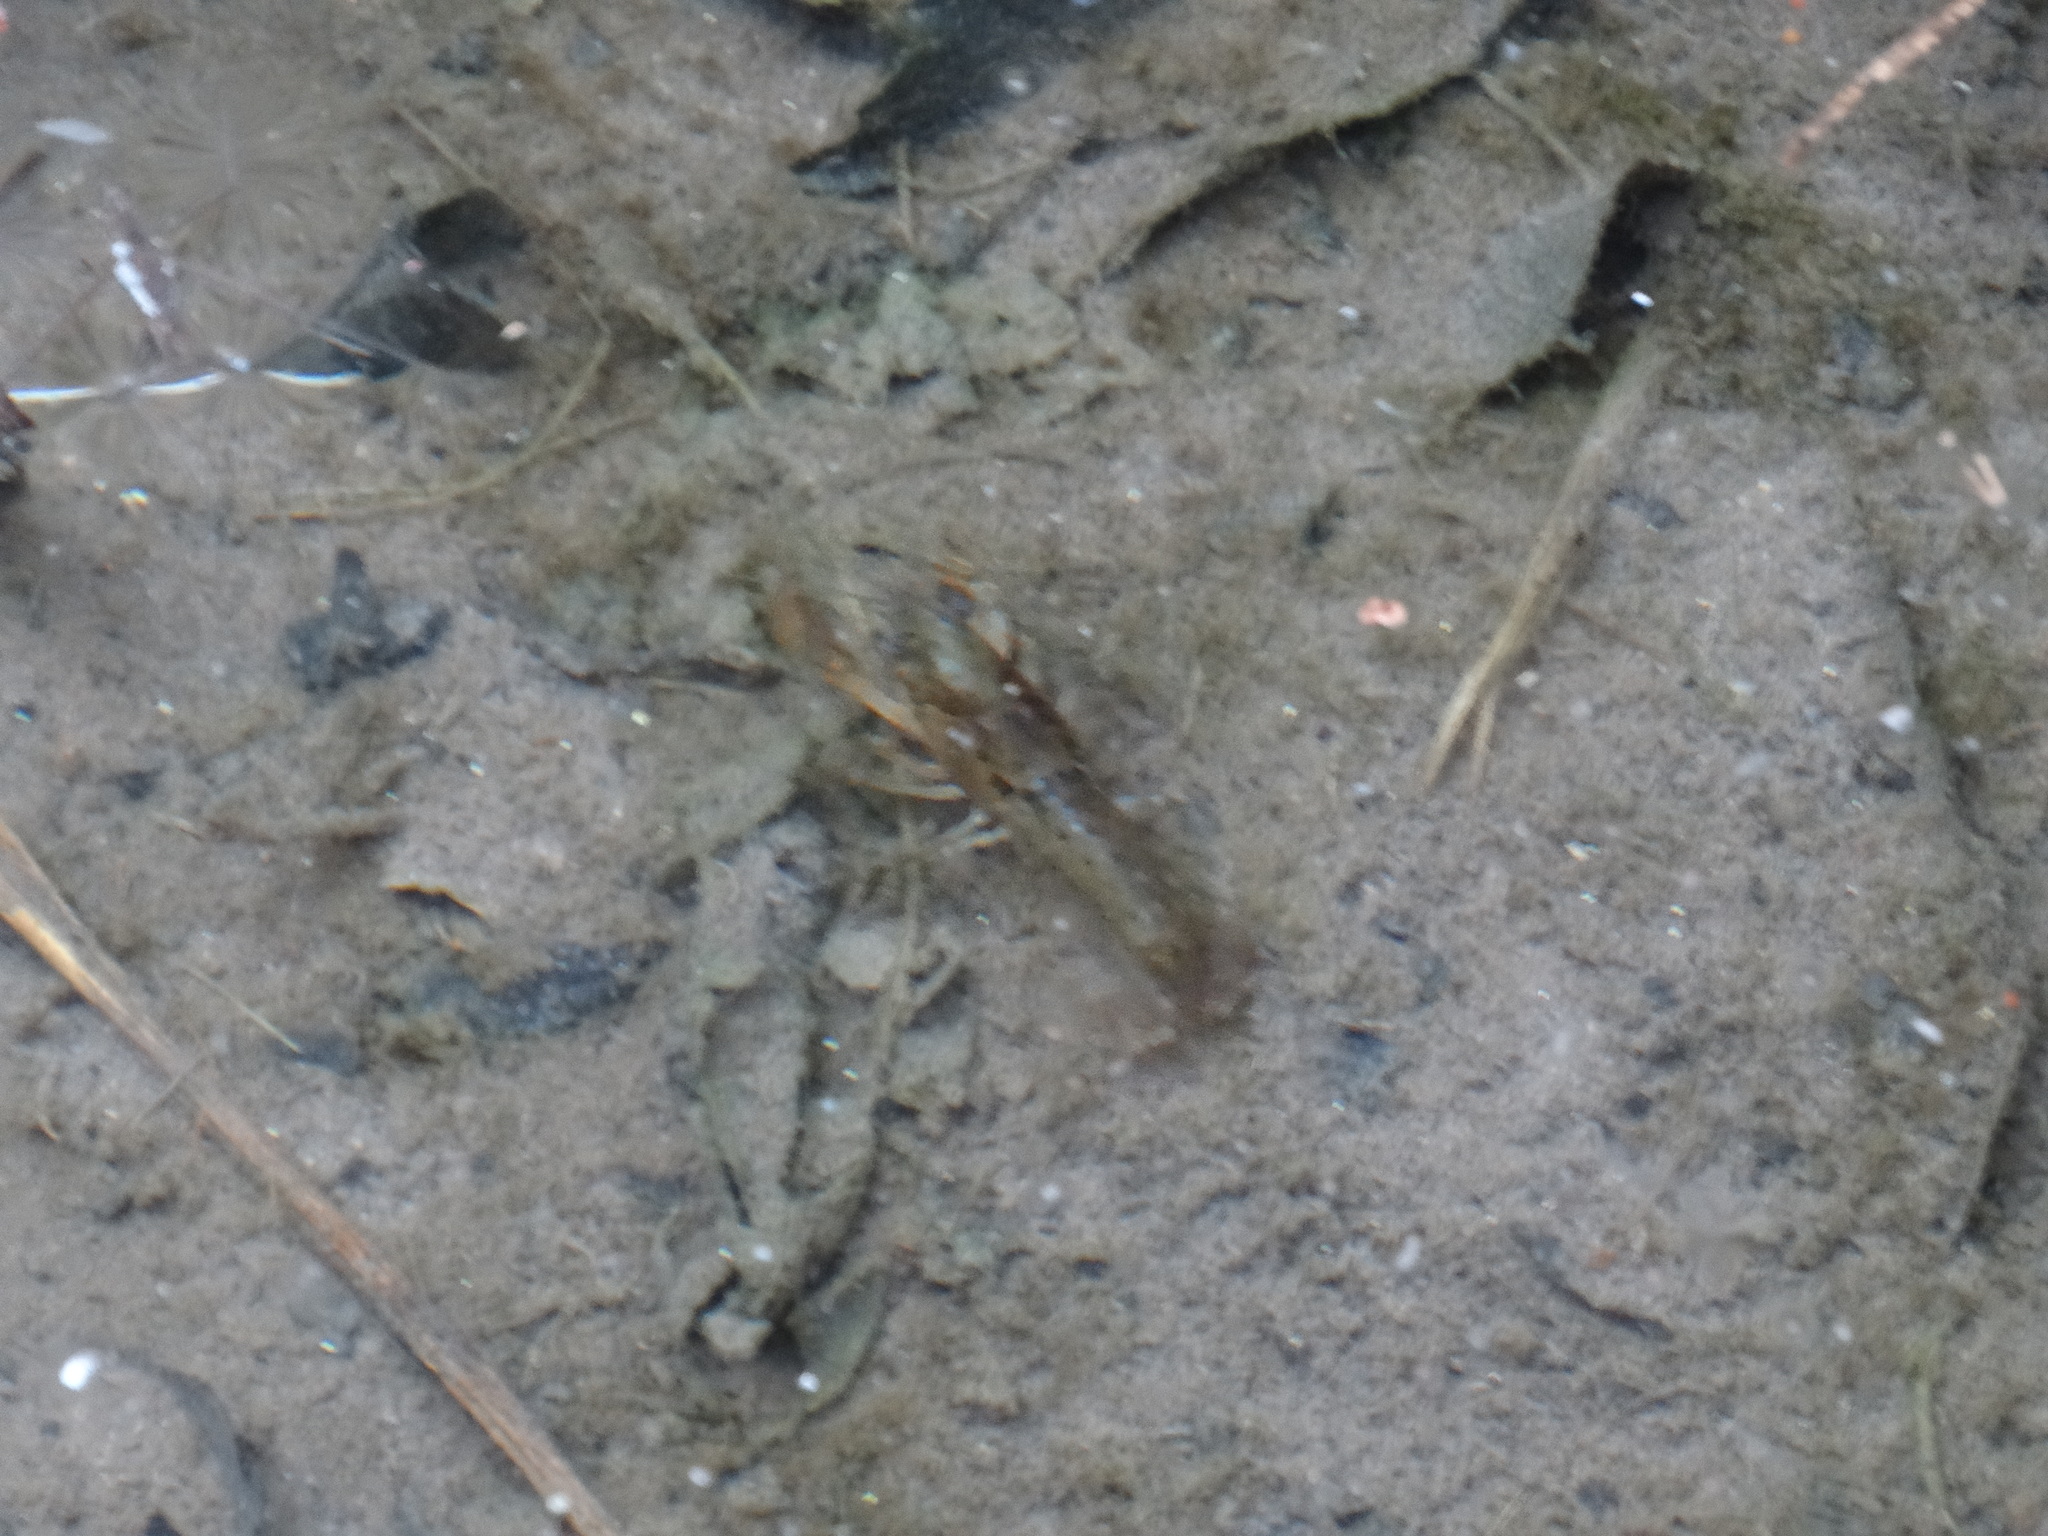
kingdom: Animalia
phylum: Arthropoda
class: Malacostraca
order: Decapoda
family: Cambaridae
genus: Cambarellus
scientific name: Cambarellus montezumae
